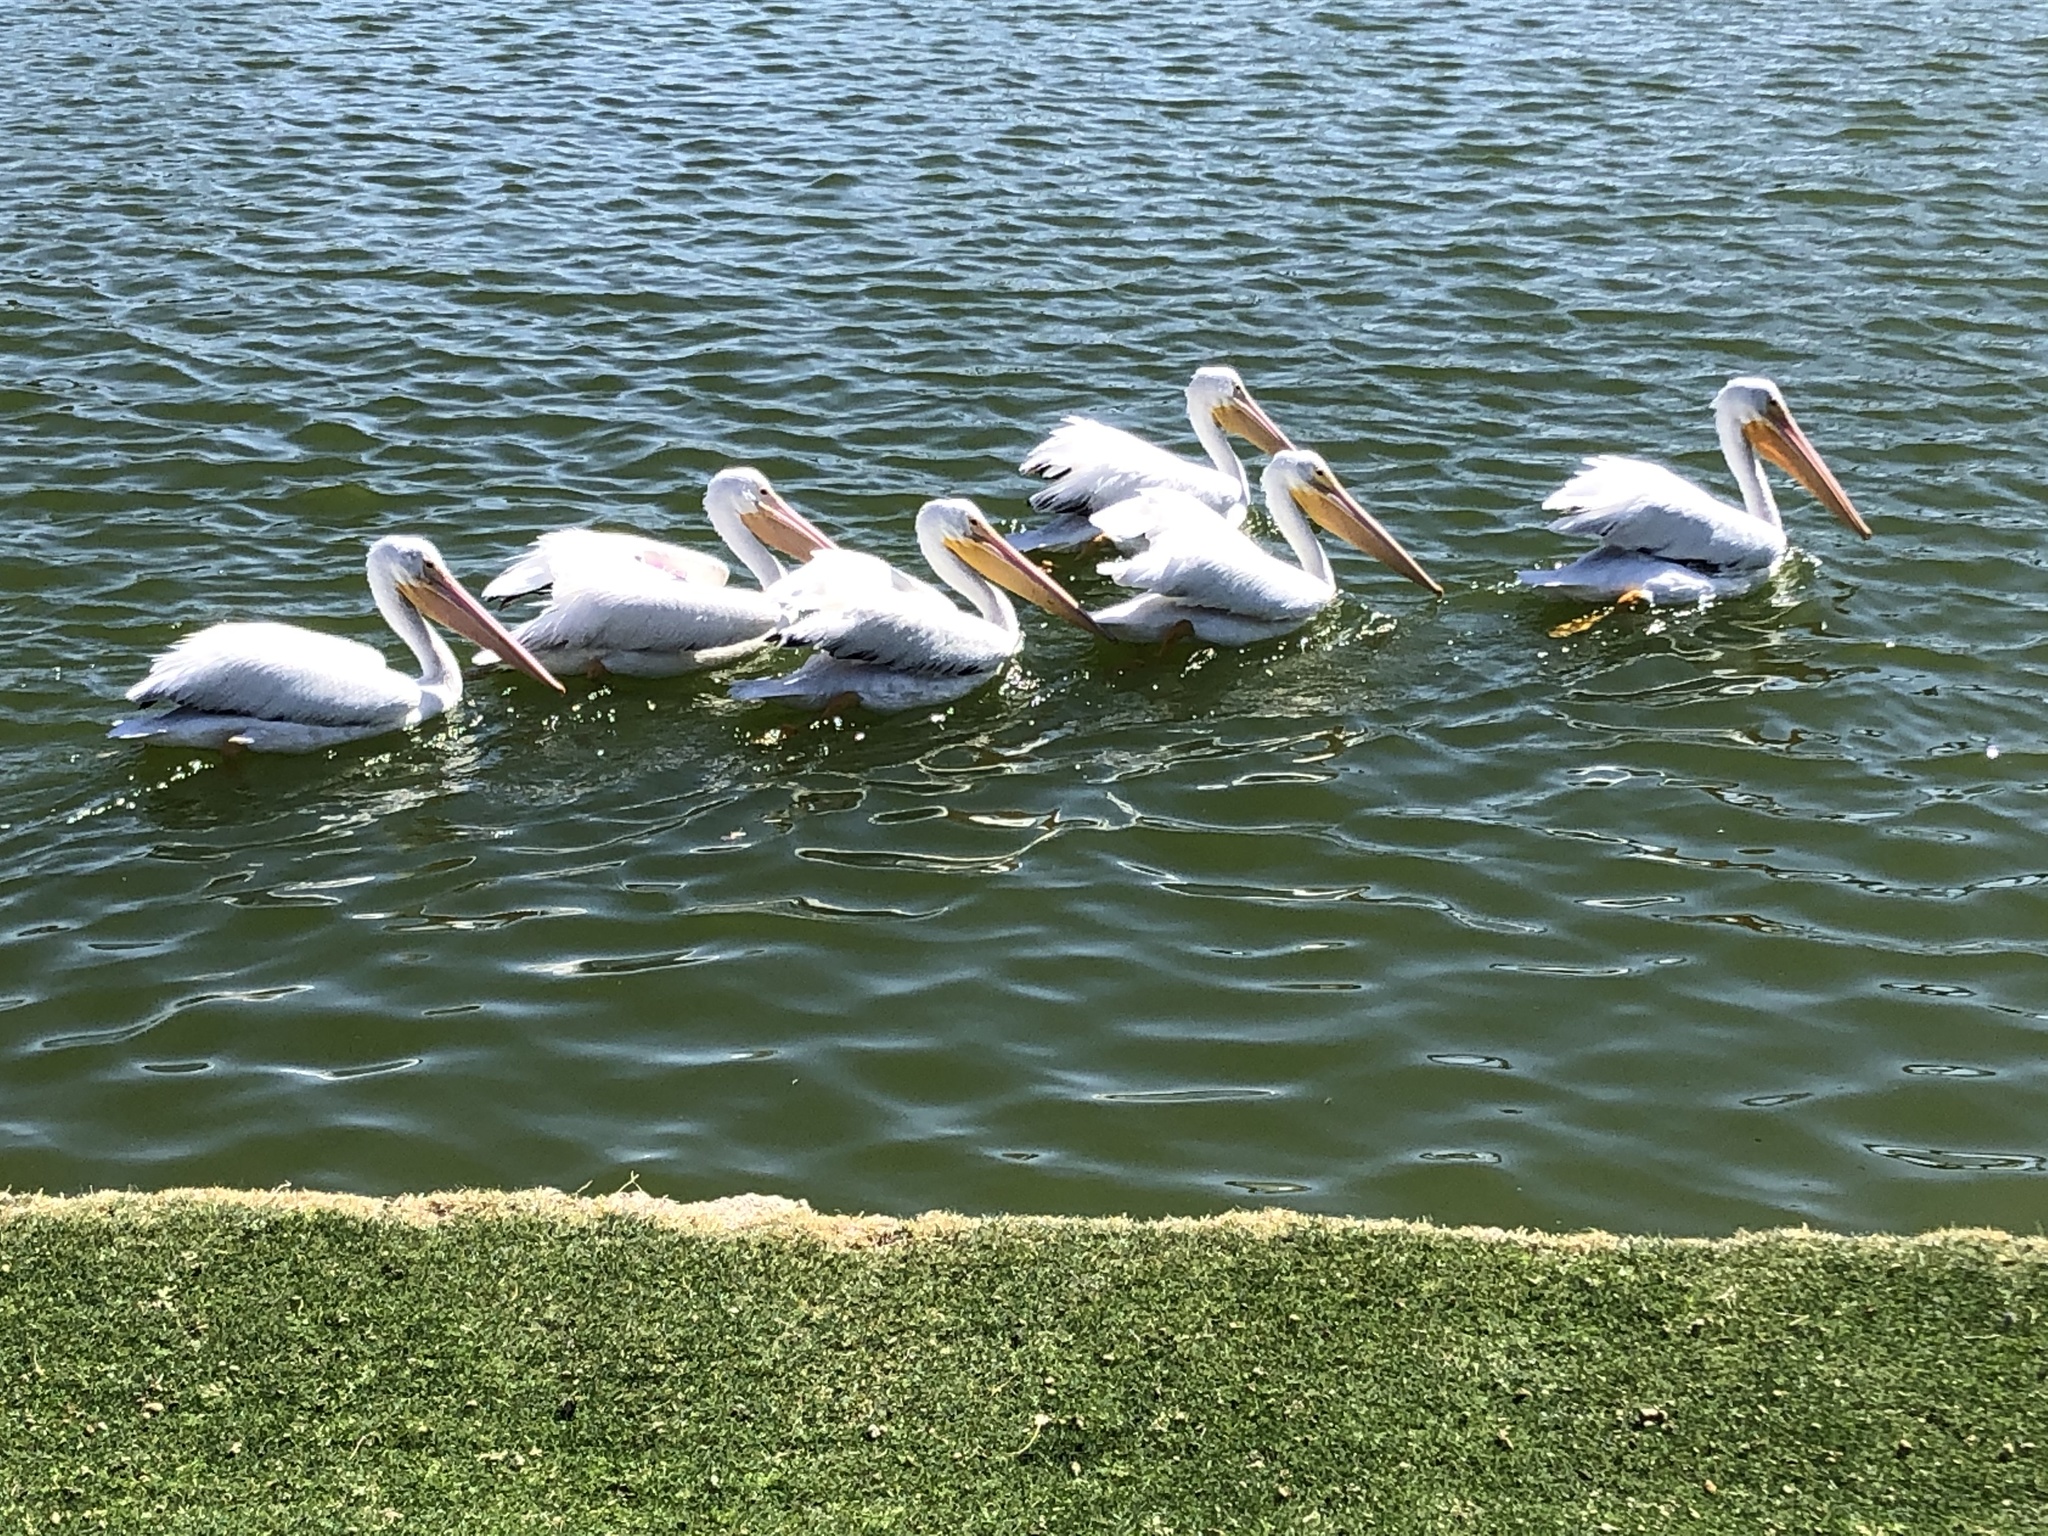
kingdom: Animalia
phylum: Chordata
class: Aves
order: Pelecaniformes
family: Pelecanidae
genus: Pelecanus
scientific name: Pelecanus erythrorhynchos
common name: American white pelican
